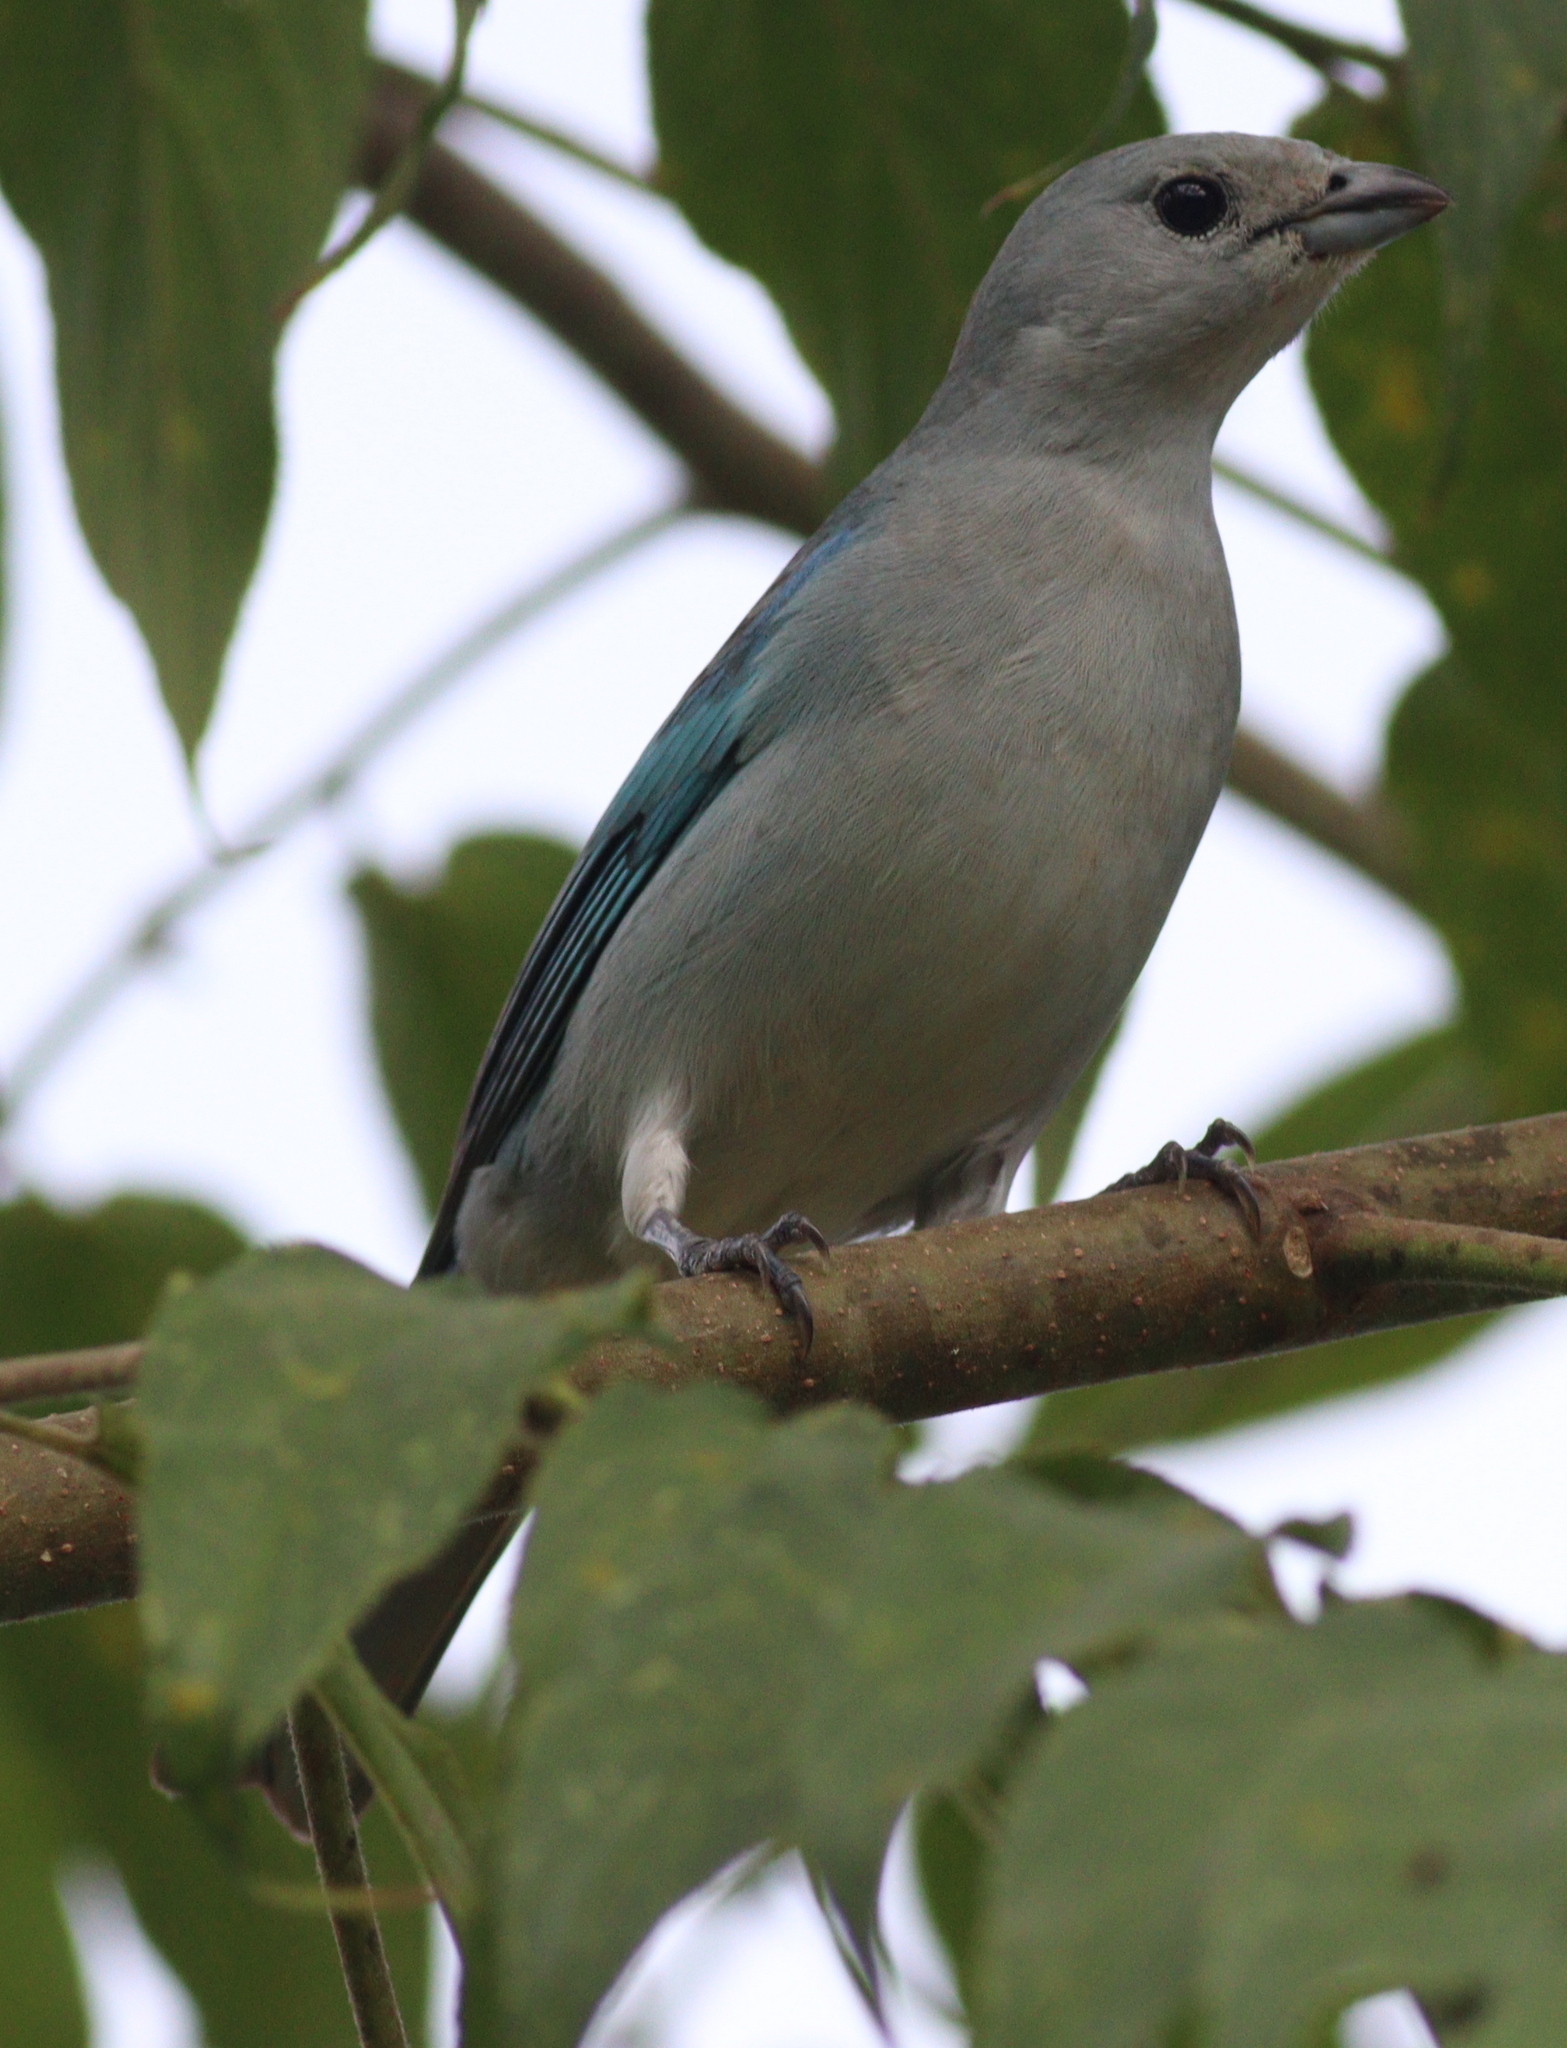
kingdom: Animalia
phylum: Chordata
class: Aves
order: Passeriformes
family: Thraupidae
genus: Thraupis
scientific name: Thraupis sayaca
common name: Sayaca tanager
